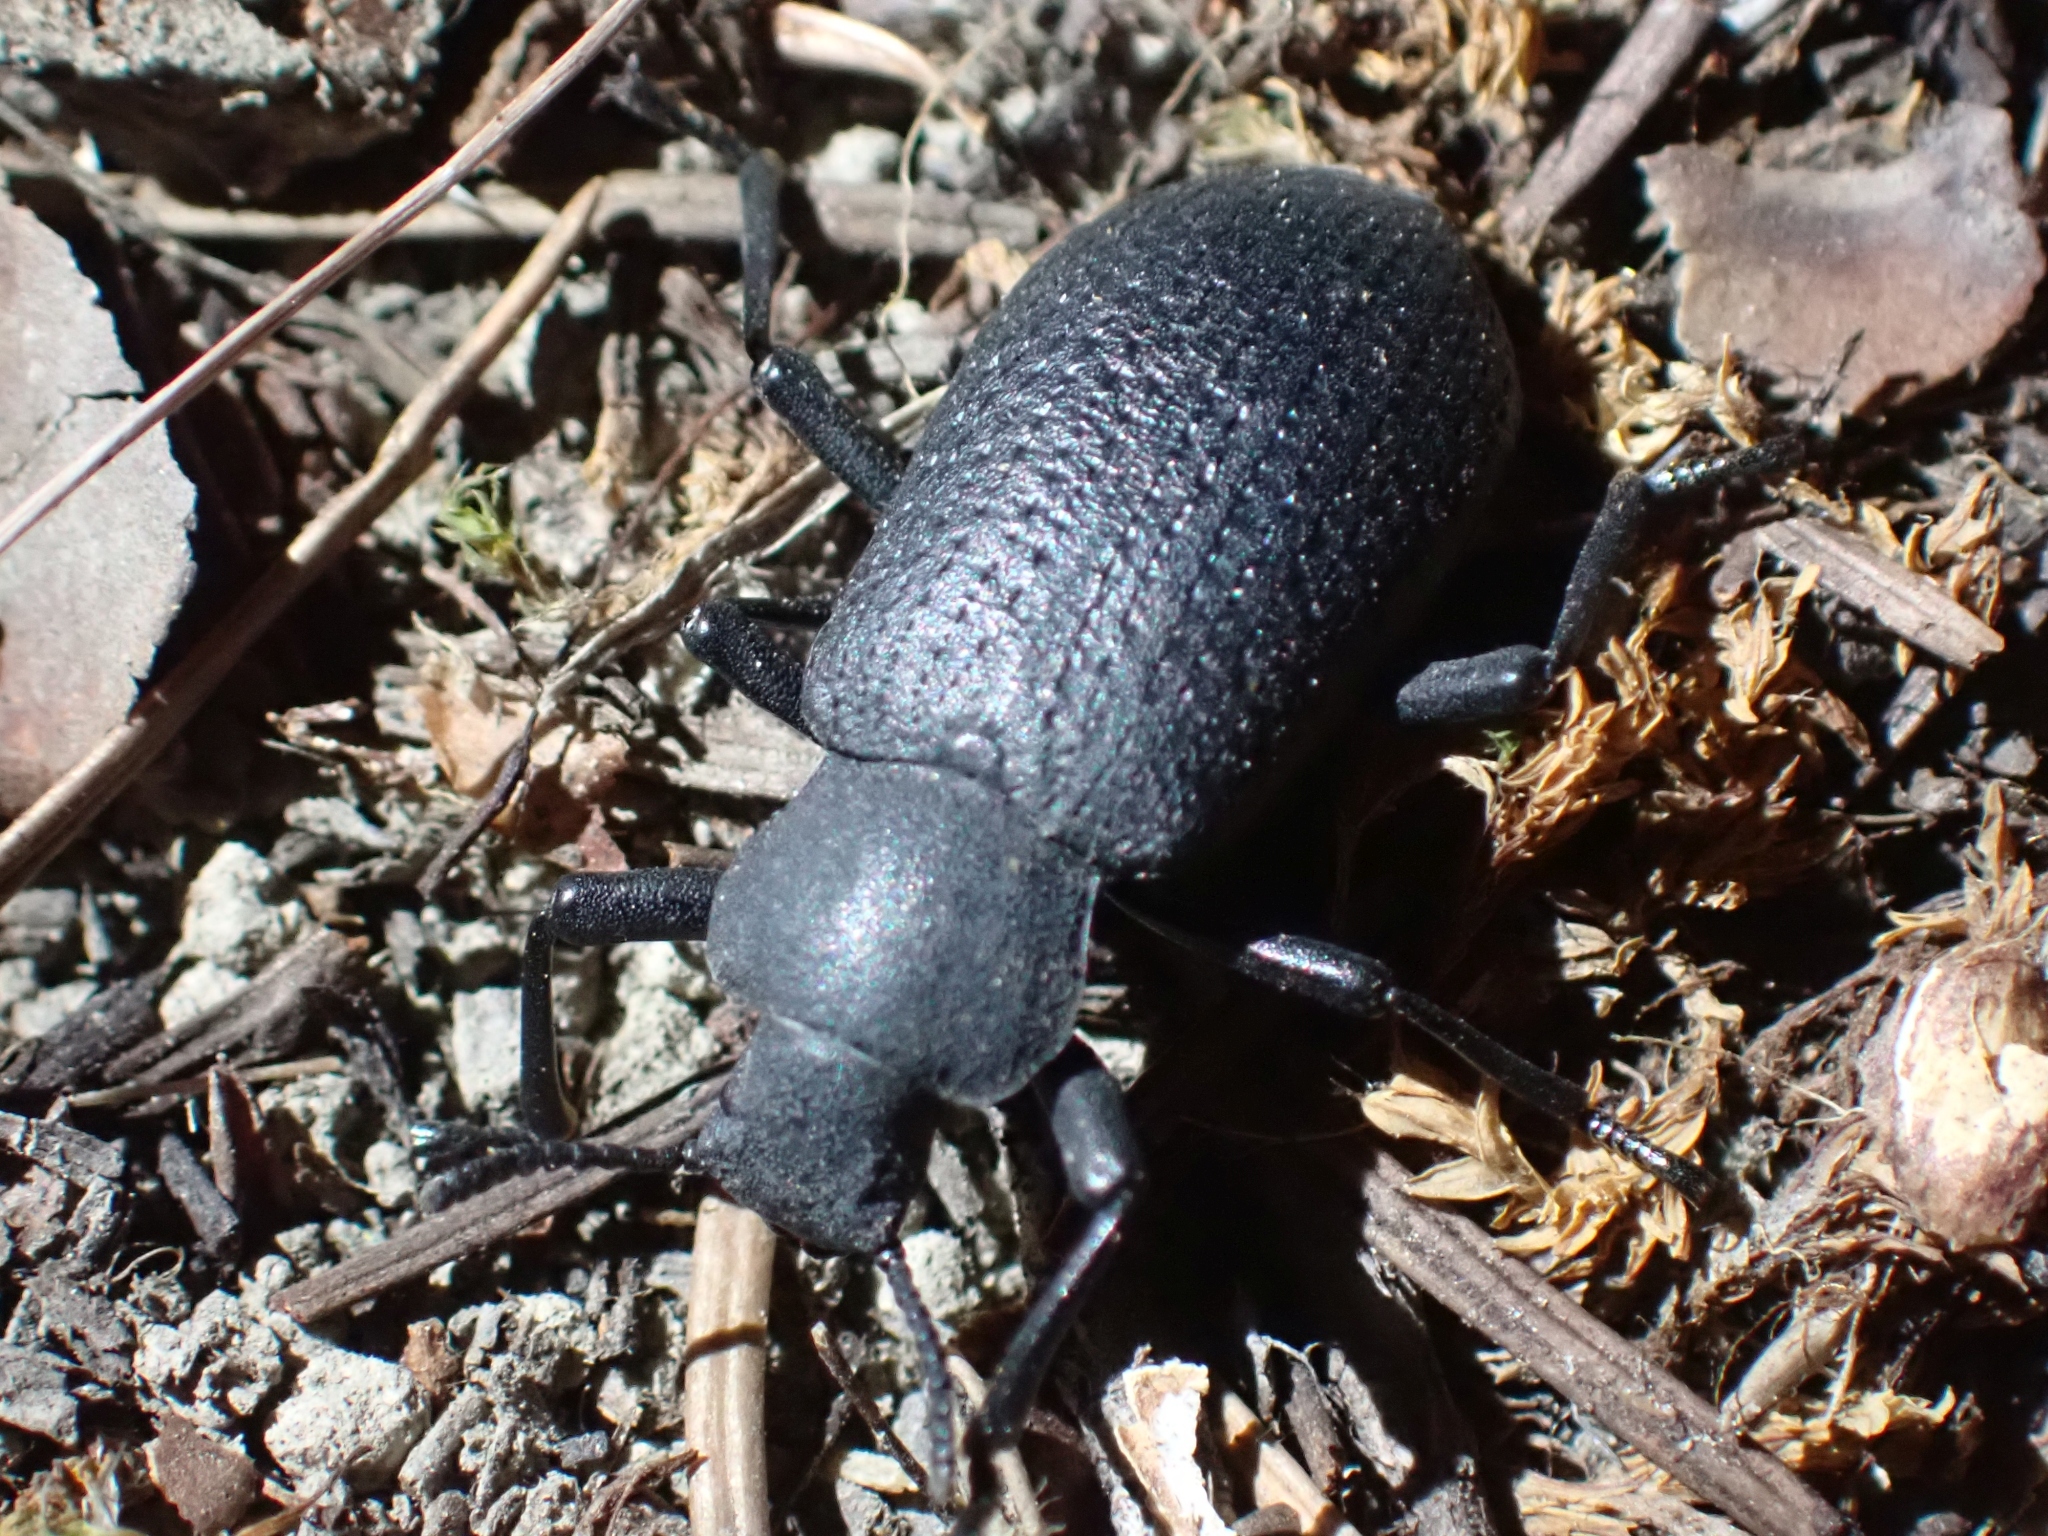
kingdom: Animalia
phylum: Arthropoda
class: Insecta
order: Coleoptera
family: Tenebrionidae
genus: Iphthiminus
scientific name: Iphthiminus serratus
